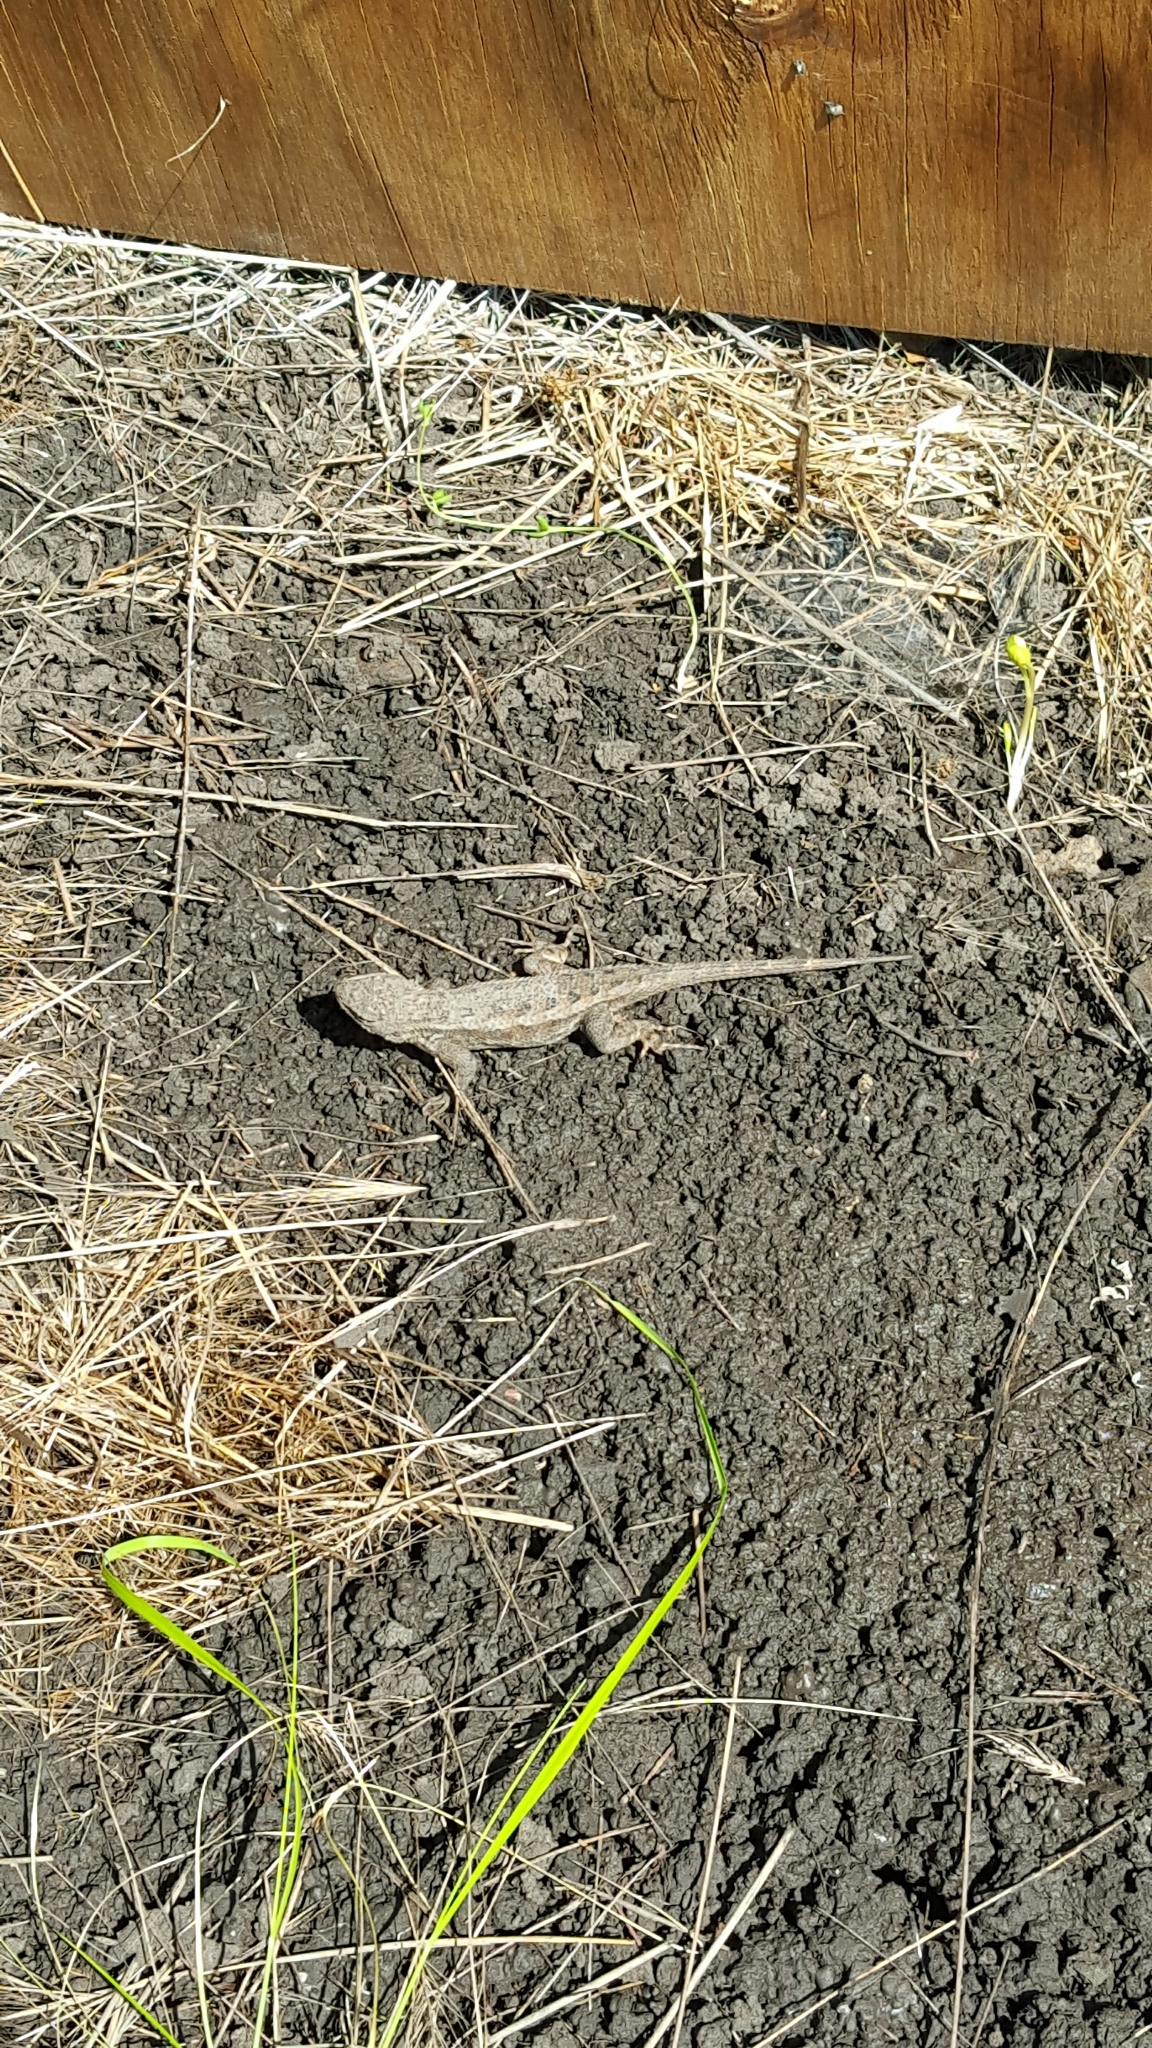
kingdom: Animalia
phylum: Chordata
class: Squamata
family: Phrynosomatidae
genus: Sceloporus
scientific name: Sceloporus occidentalis
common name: Western fence lizard
